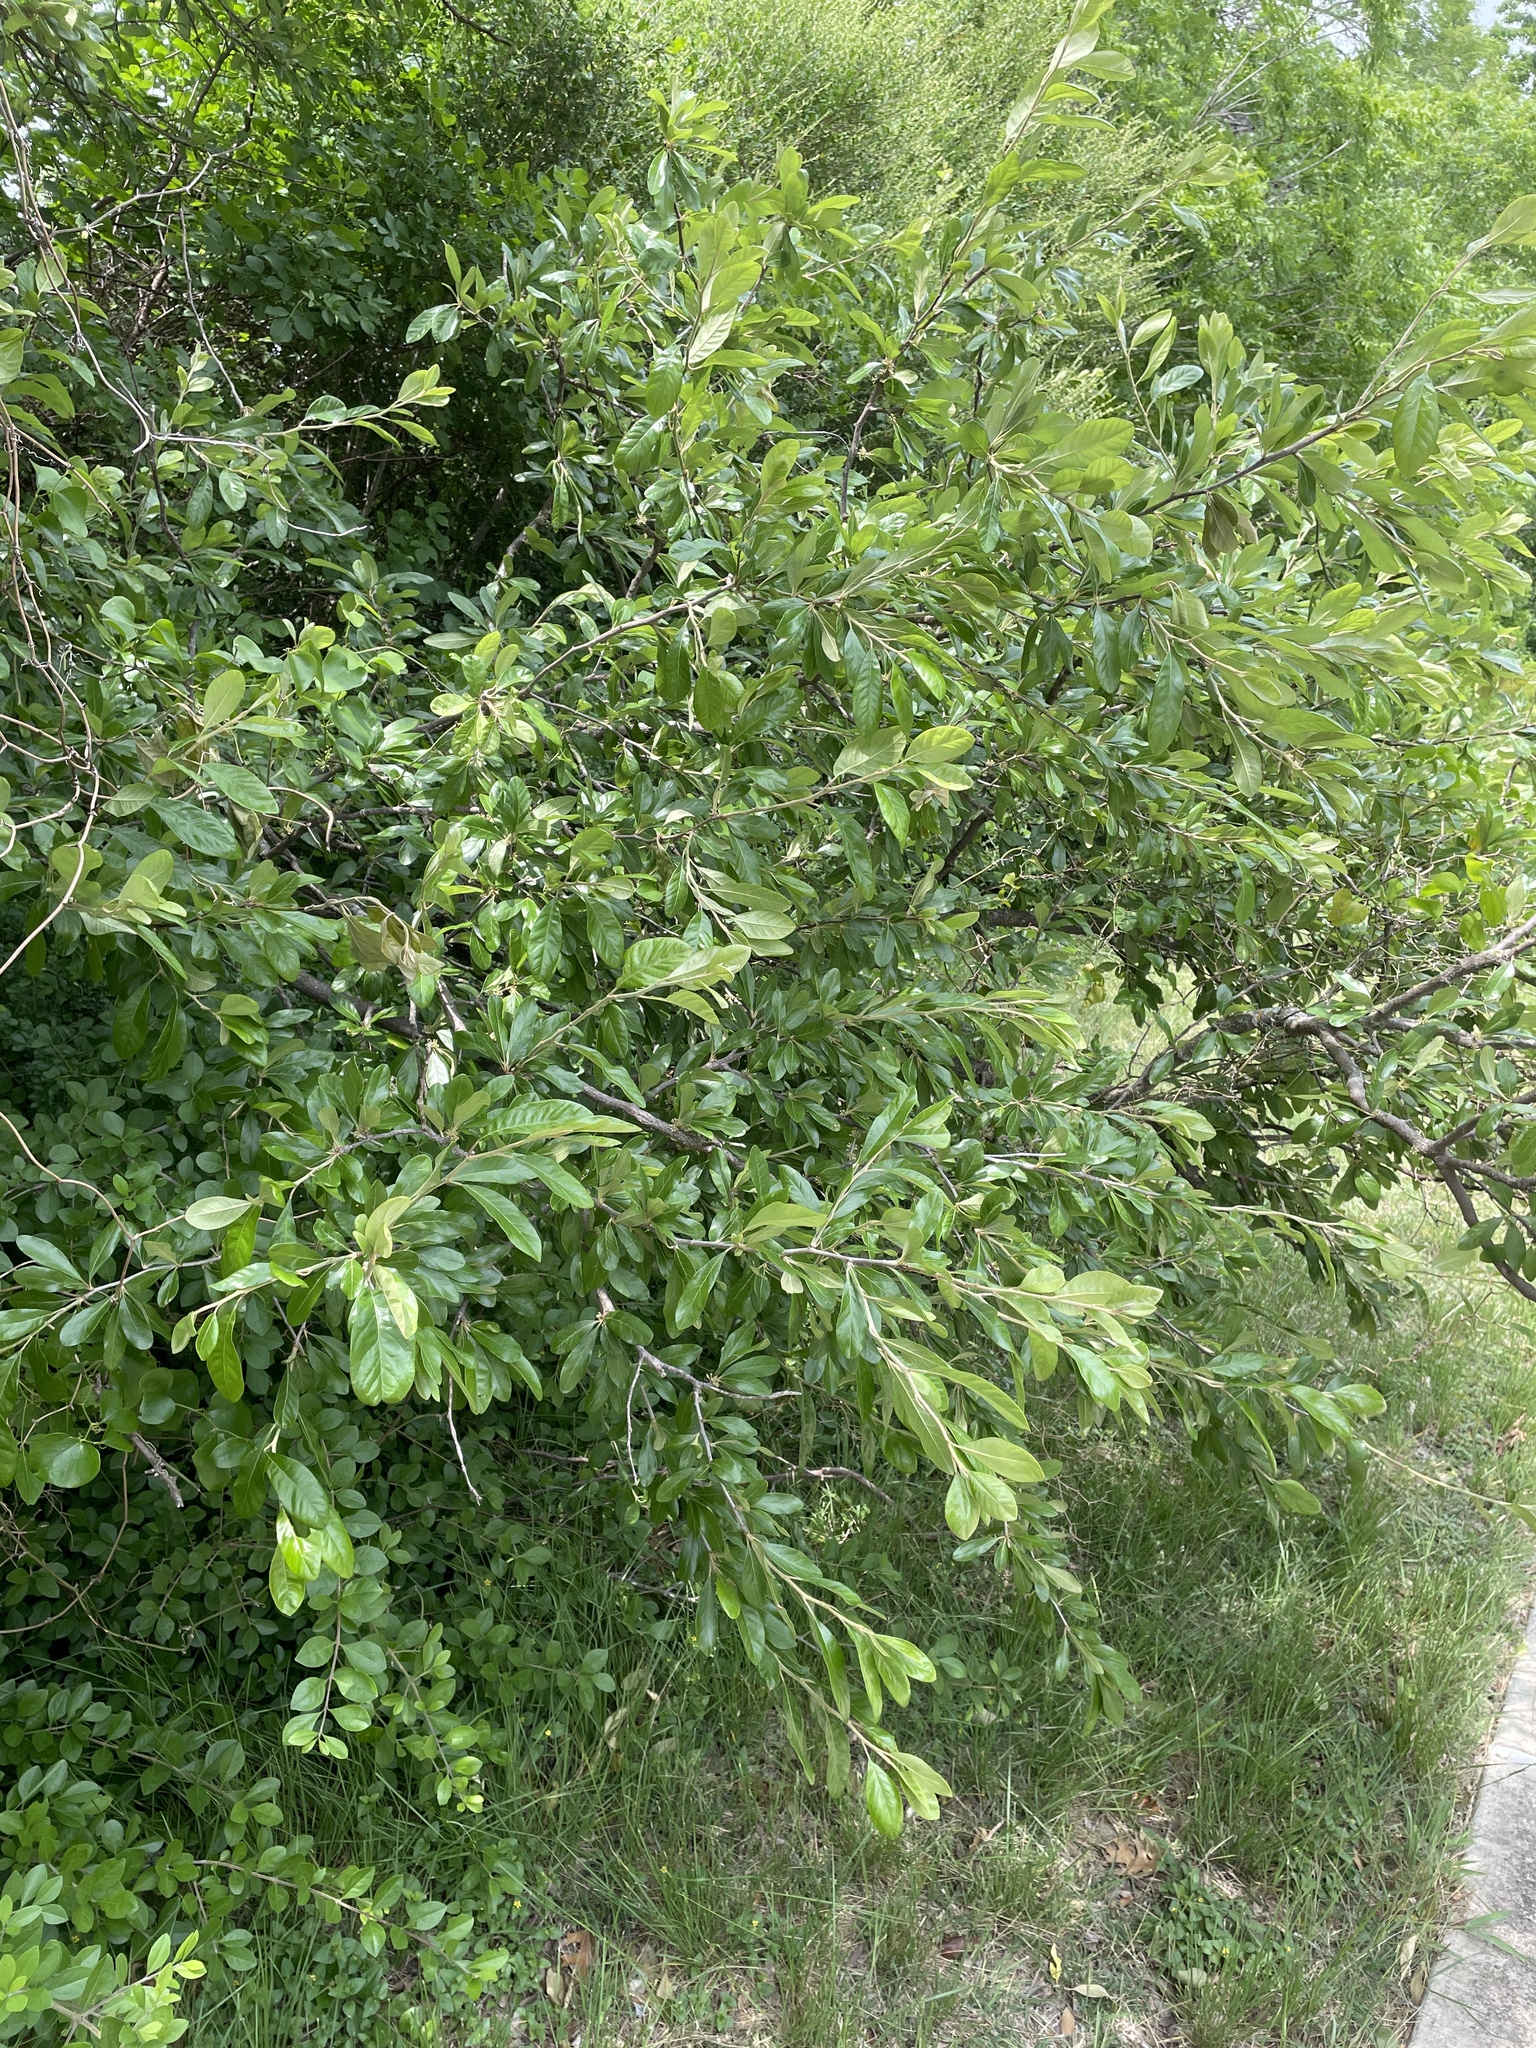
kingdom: Plantae
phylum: Tracheophyta
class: Magnoliopsida
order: Ericales
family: Sapotaceae
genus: Sideroxylon
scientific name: Sideroxylon lanuginosum
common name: Chittamwood
